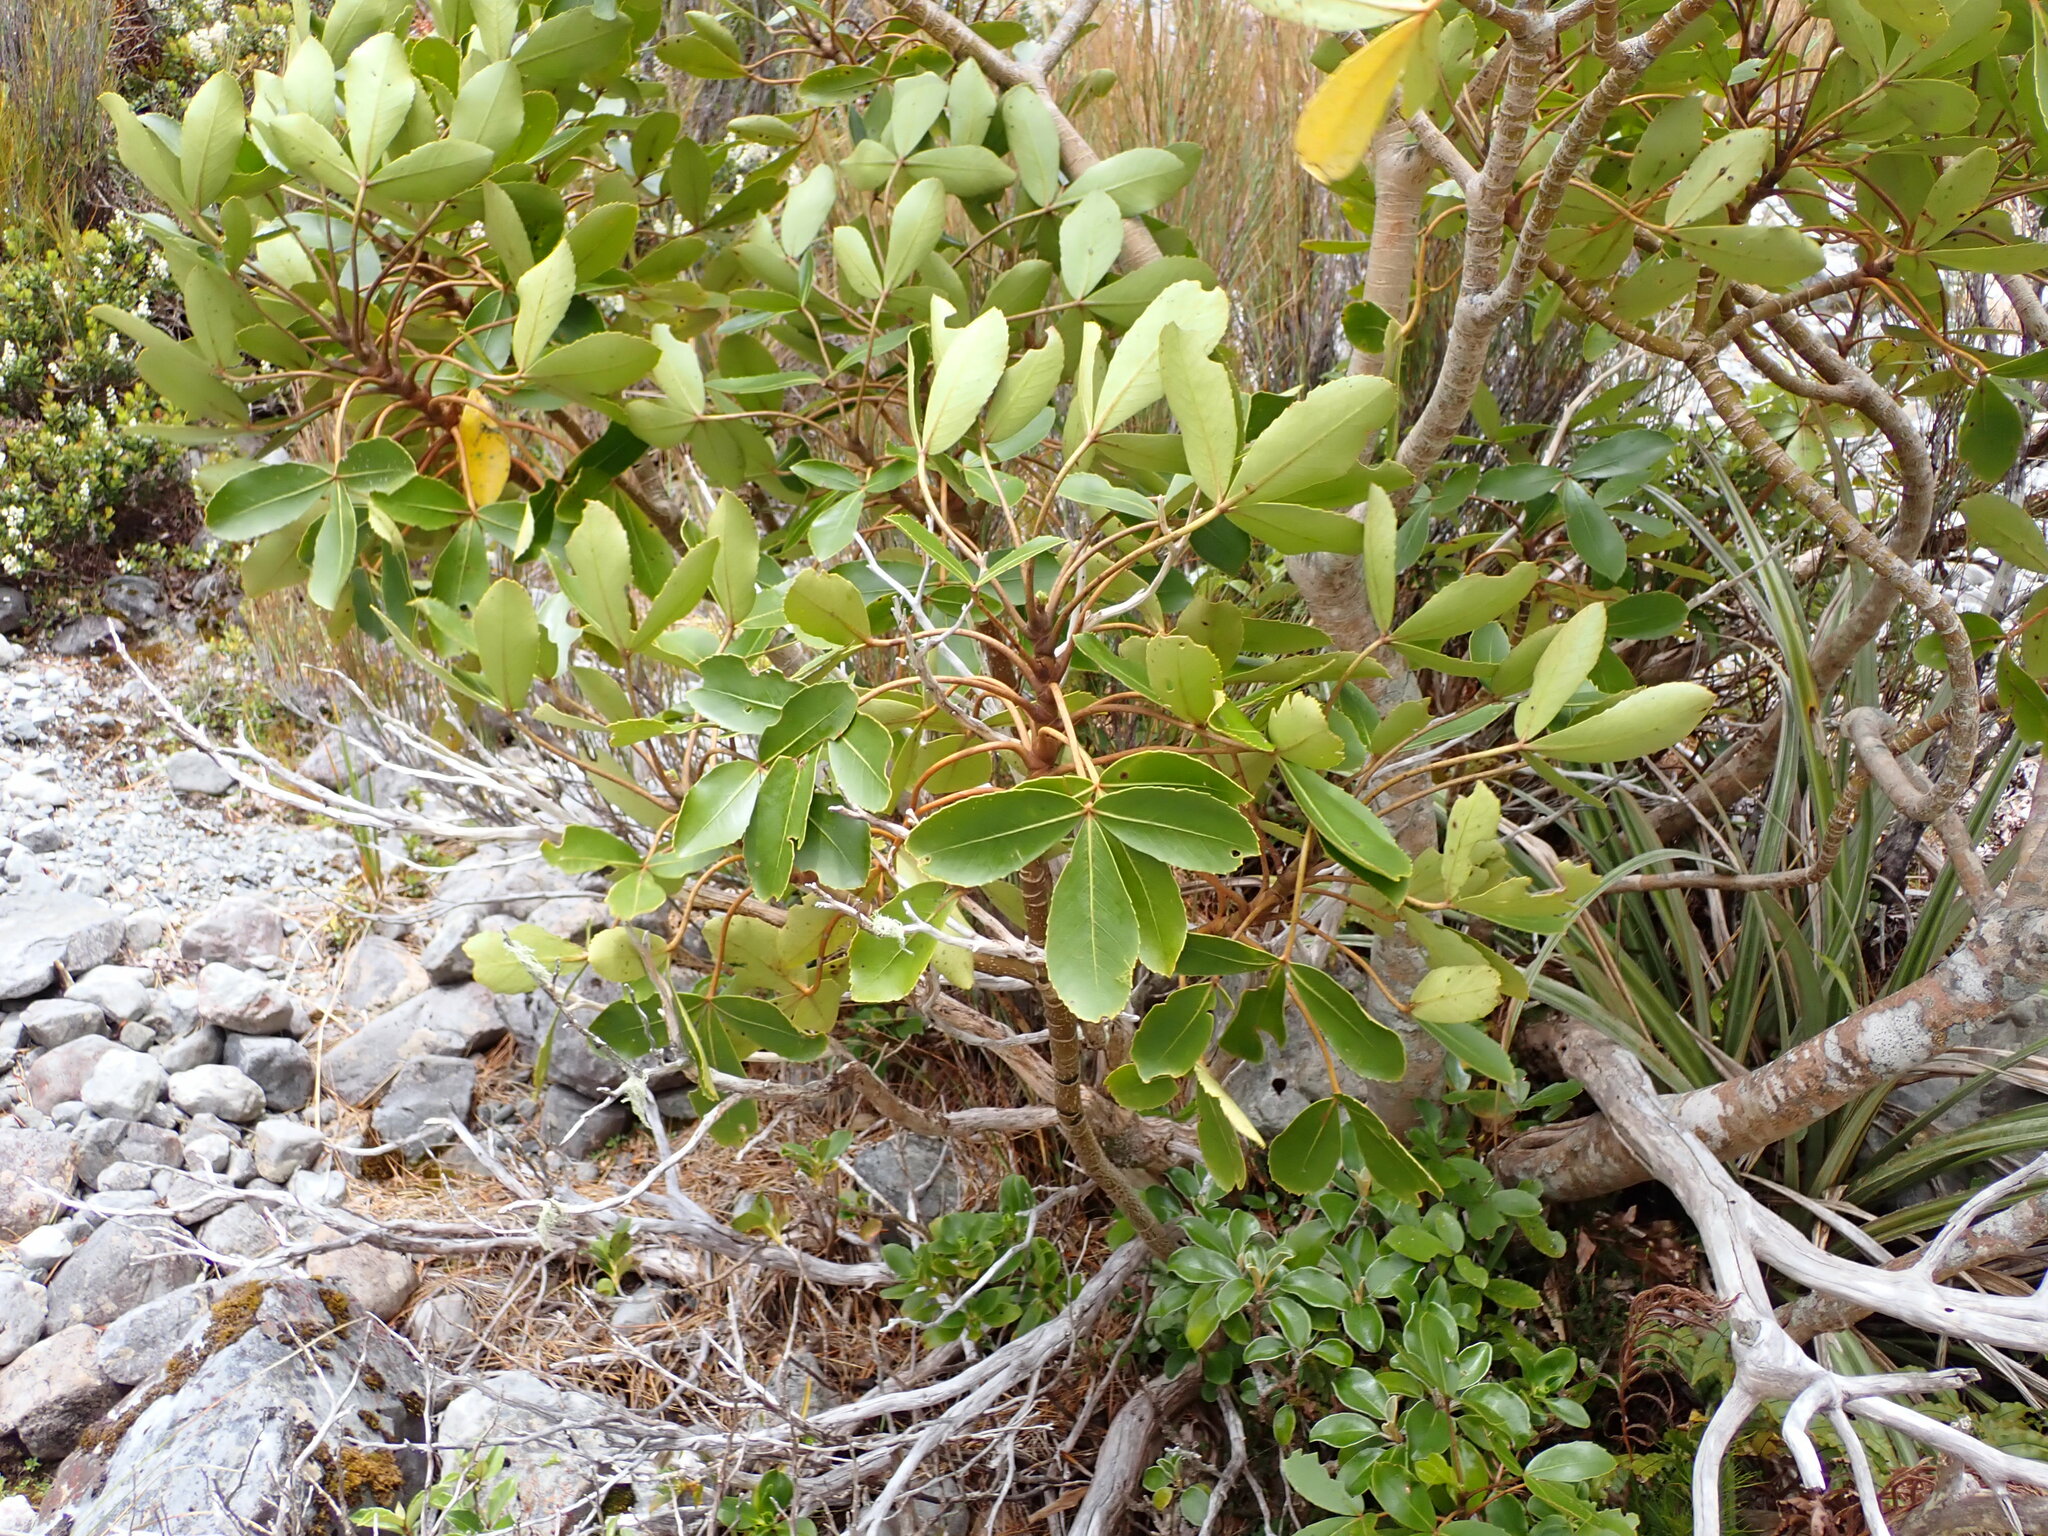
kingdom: Plantae
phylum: Tracheophyta
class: Magnoliopsida
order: Apiales
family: Araliaceae
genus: Neopanax
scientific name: Neopanax colensoi
